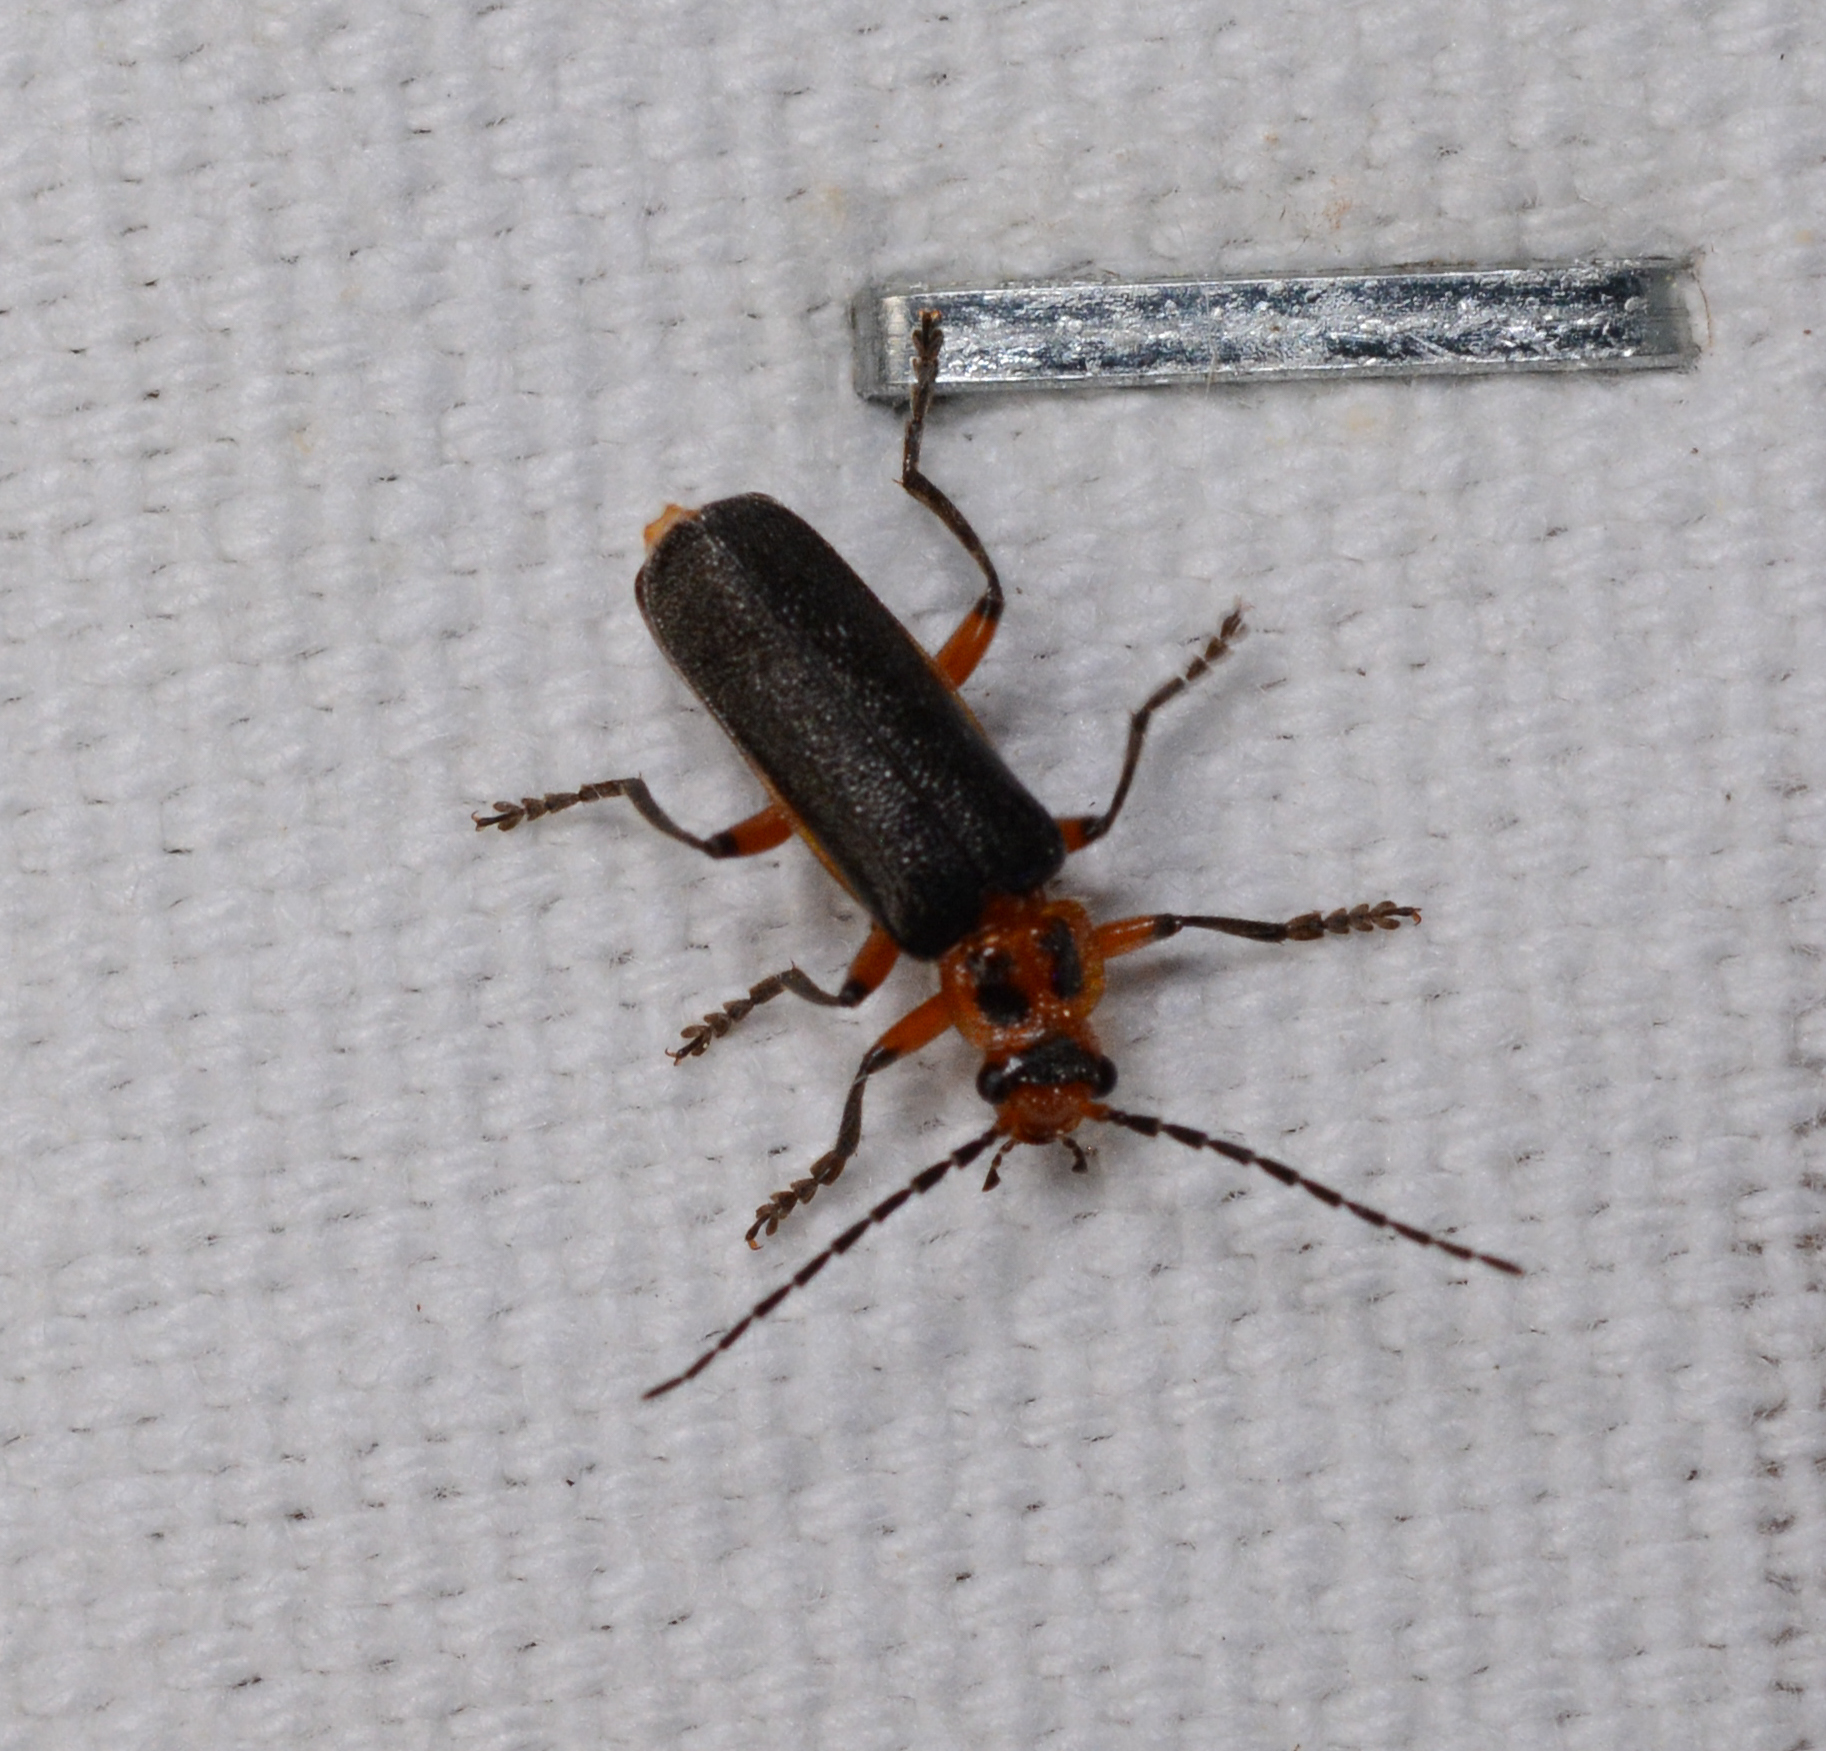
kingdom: Animalia
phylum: Arthropoda
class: Insecta
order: Coleoptera
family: Cantharidae
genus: Atalantycha
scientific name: Atalantycha bilineata
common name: Two-lined leatherwing
